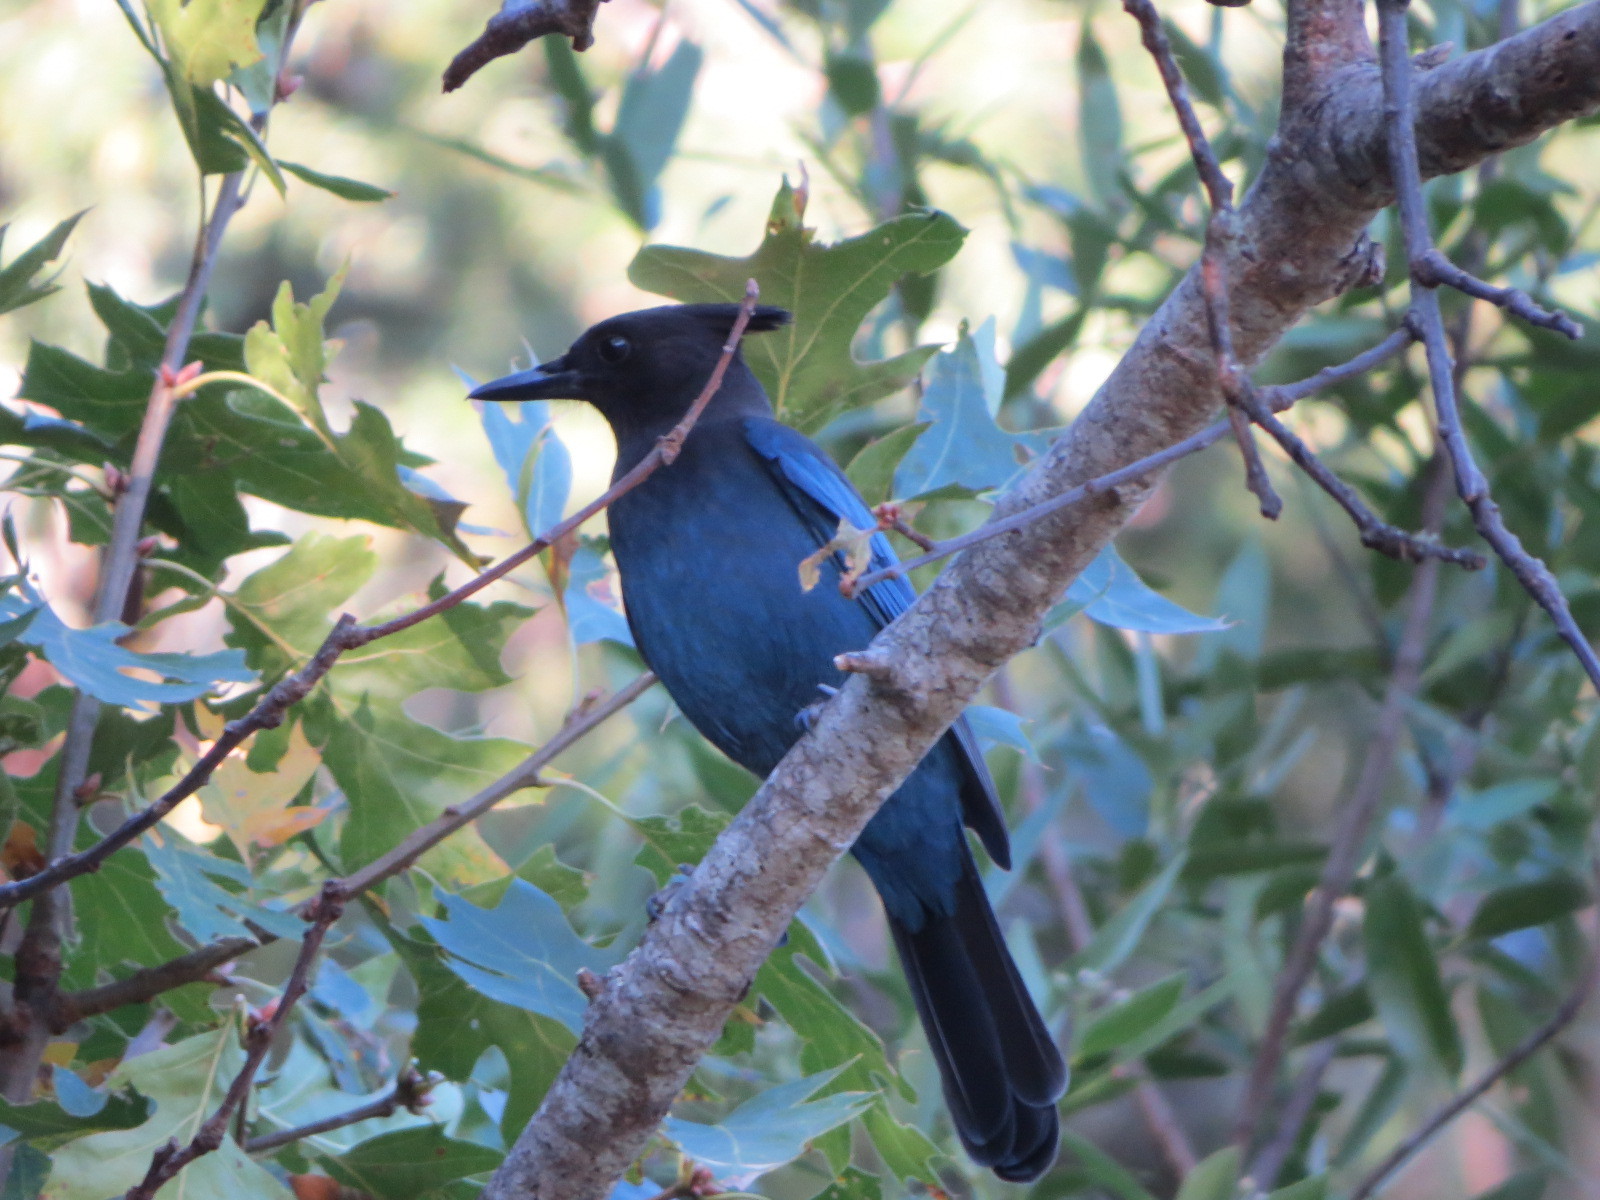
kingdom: Animalia
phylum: Chordata
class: Aves
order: Passeriformes
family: Corvidae
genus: Cyanocitta
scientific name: Cyanocitta stelleri
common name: Steller's jay
